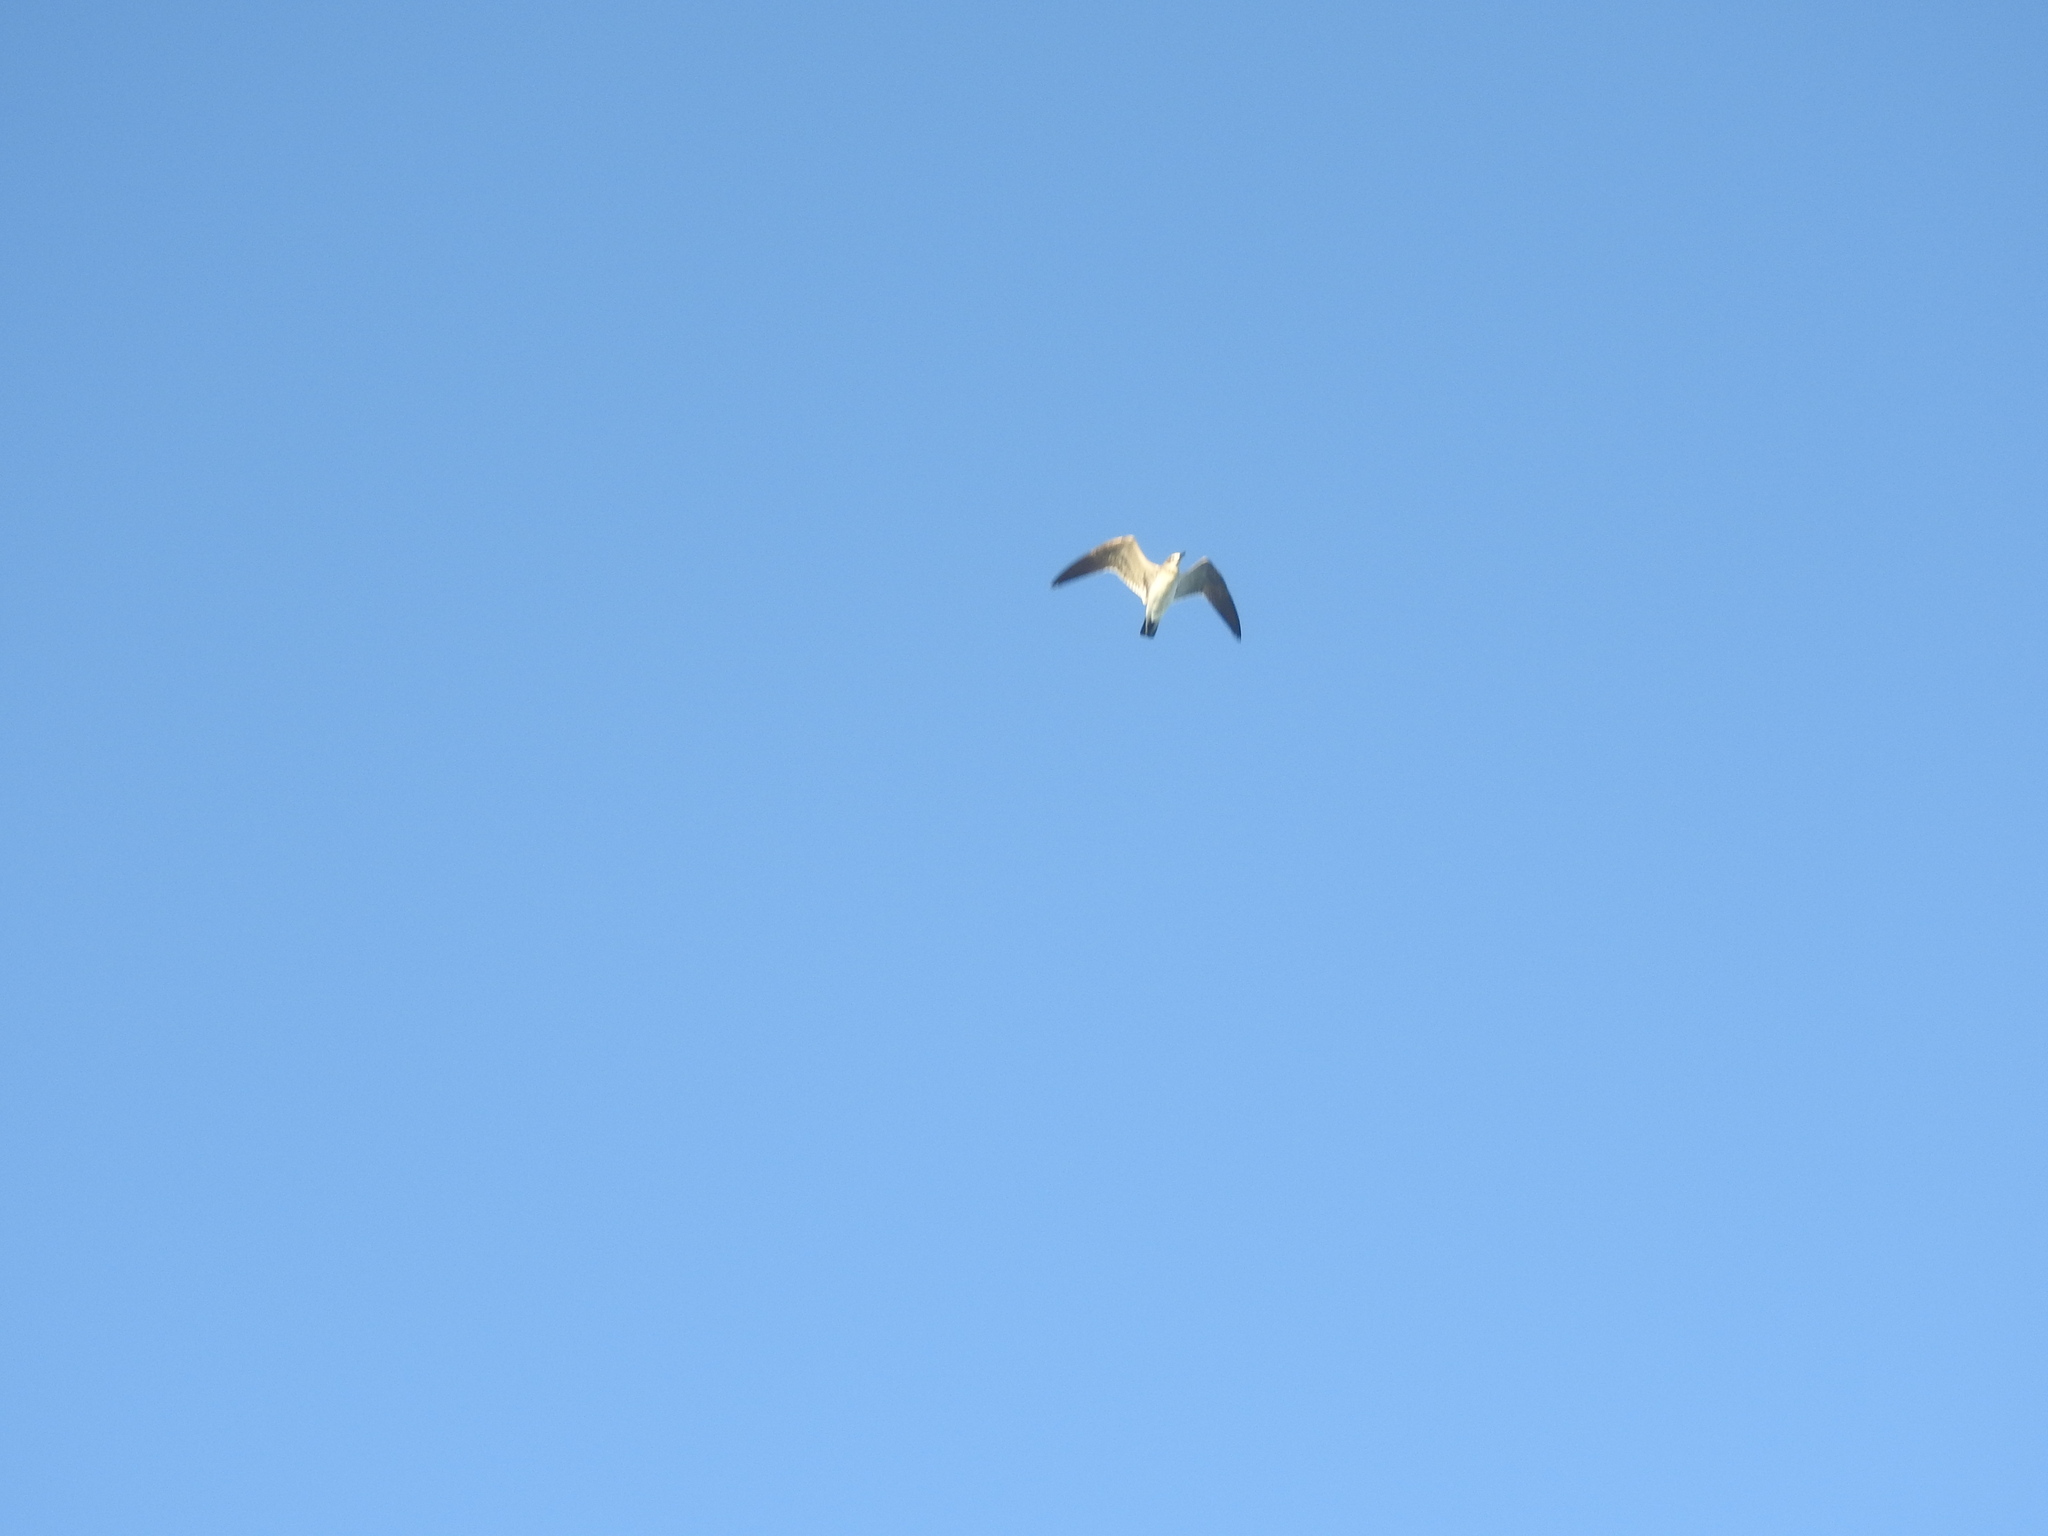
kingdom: Animalia
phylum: Chordata
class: Aves
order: Charadriiformes
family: Laridae
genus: Leucophaeus
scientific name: Leucophaeus atricilla
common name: Laughing gull
